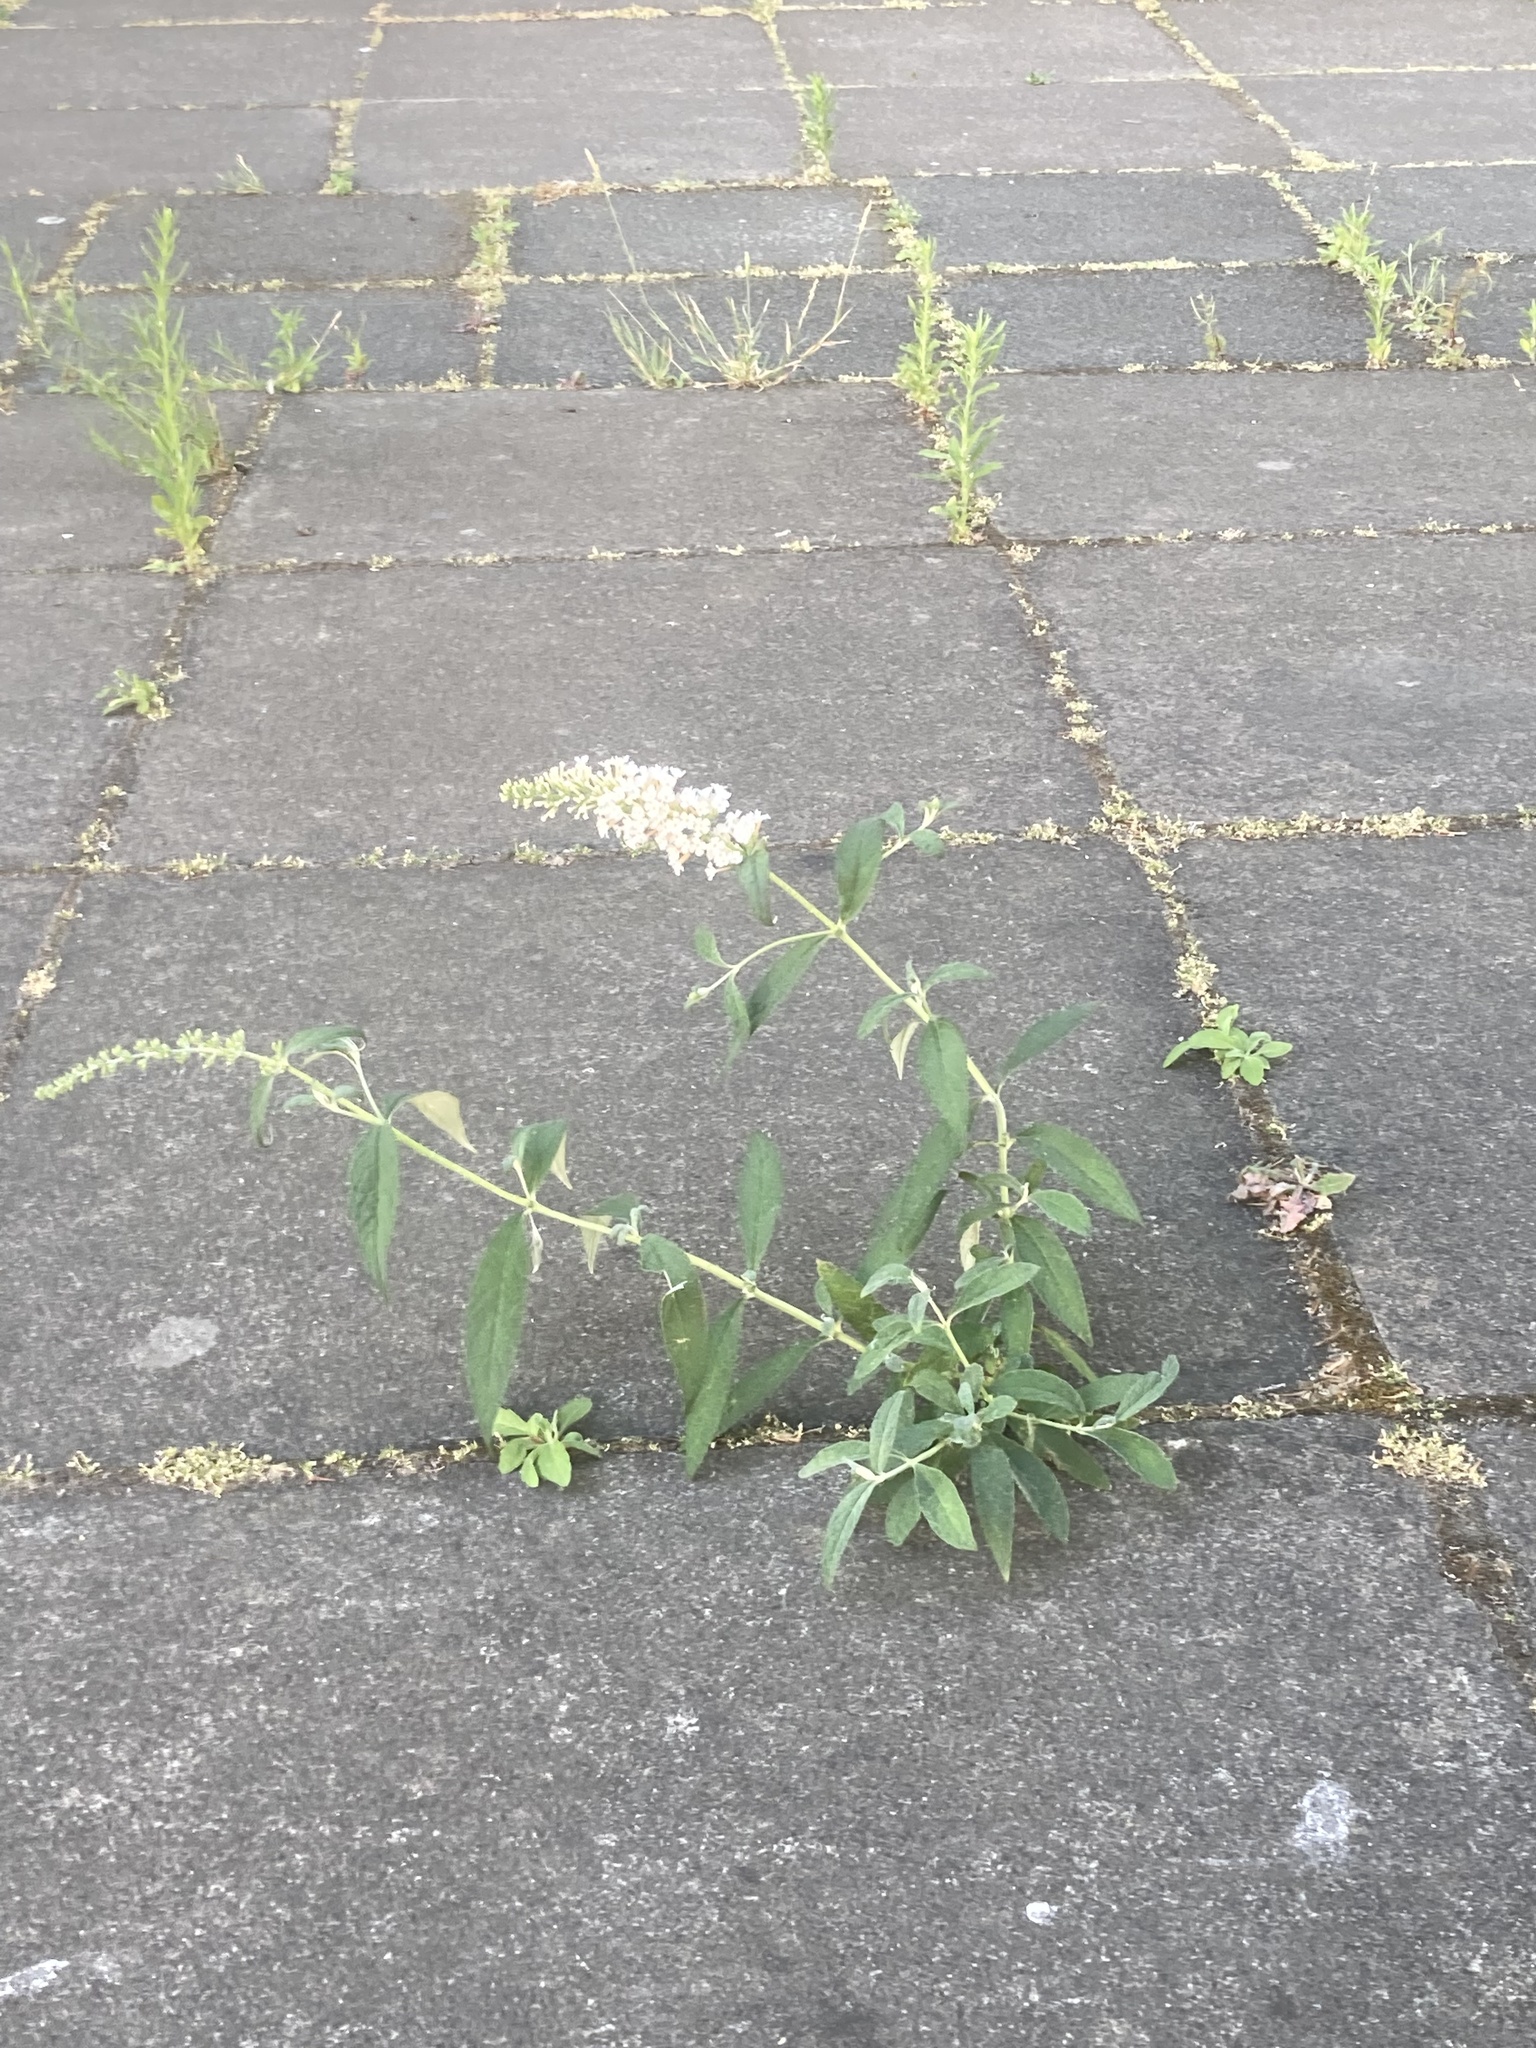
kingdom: Plantae
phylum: Tracheophyta
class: Magnoliopsida
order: Lamiales
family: Scrophulariaceae
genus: Buddleja
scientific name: Buddleja davidii
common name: Butterfly-bush
